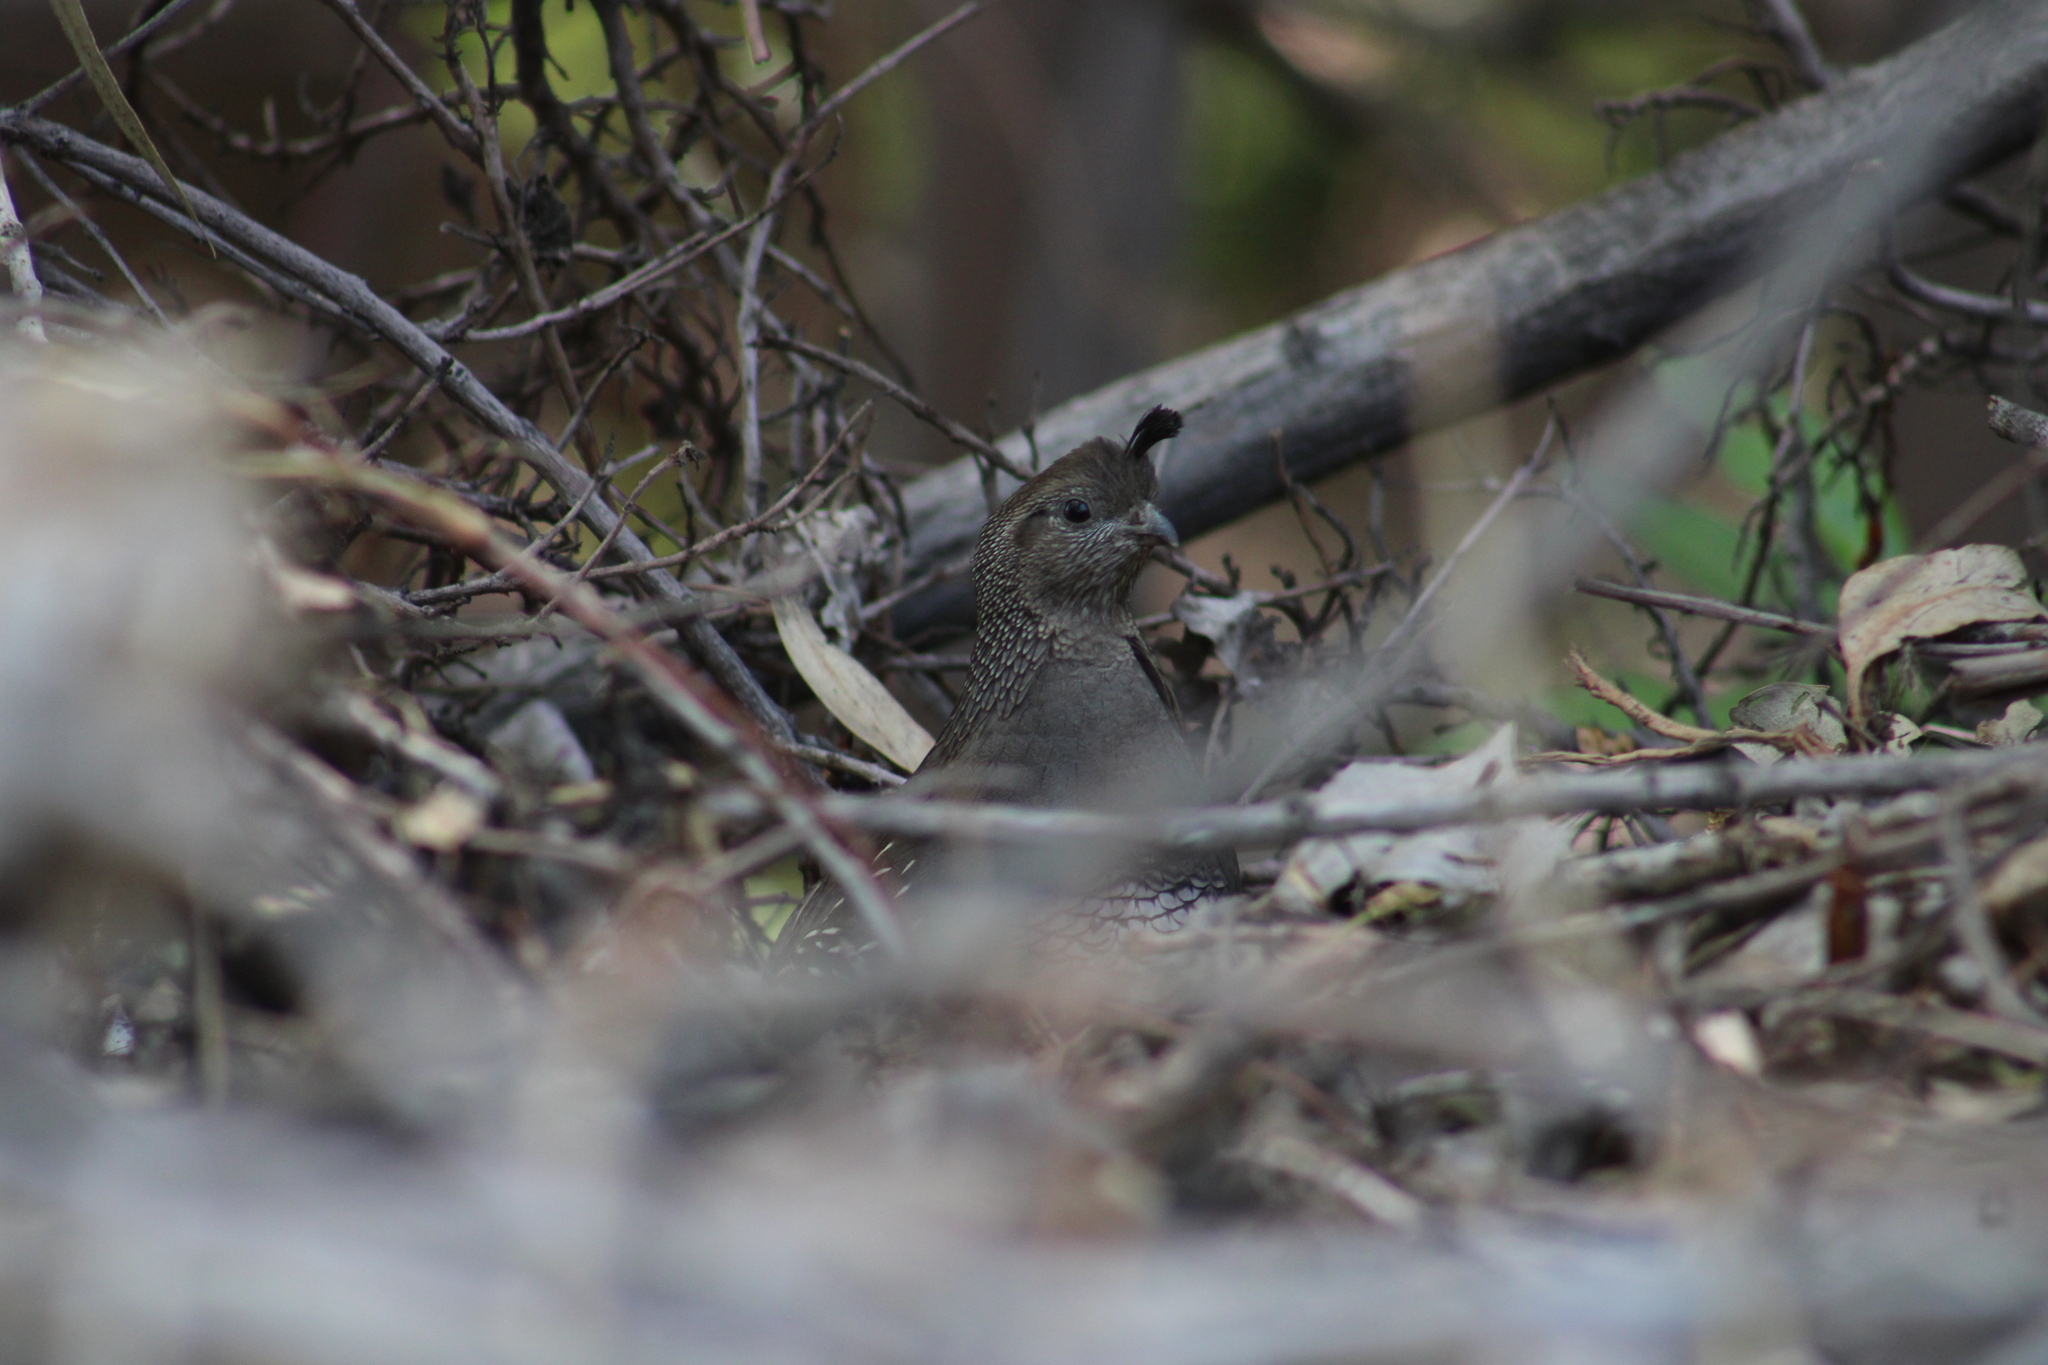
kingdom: Animalia
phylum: Chordata
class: Aves
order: Galliformes
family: Odontophoridae
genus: Callipepla
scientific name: Callipepla californica
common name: California quail
